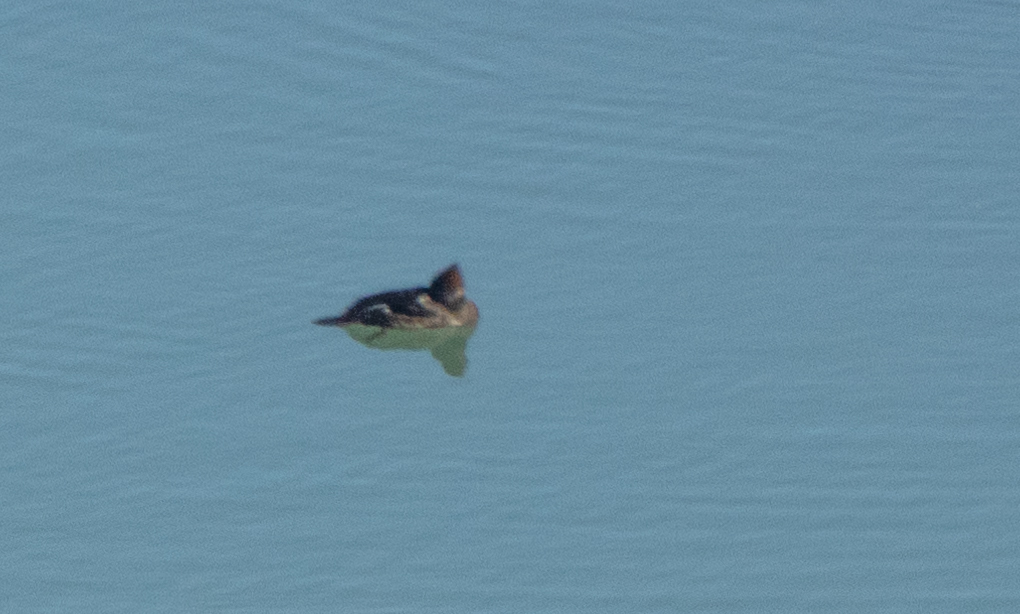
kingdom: Animalia
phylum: Chordata
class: Aves
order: Anseriformes
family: Anatidae
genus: Lophodytes
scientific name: Lophodytes cucullatus
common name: Hooded merganser
